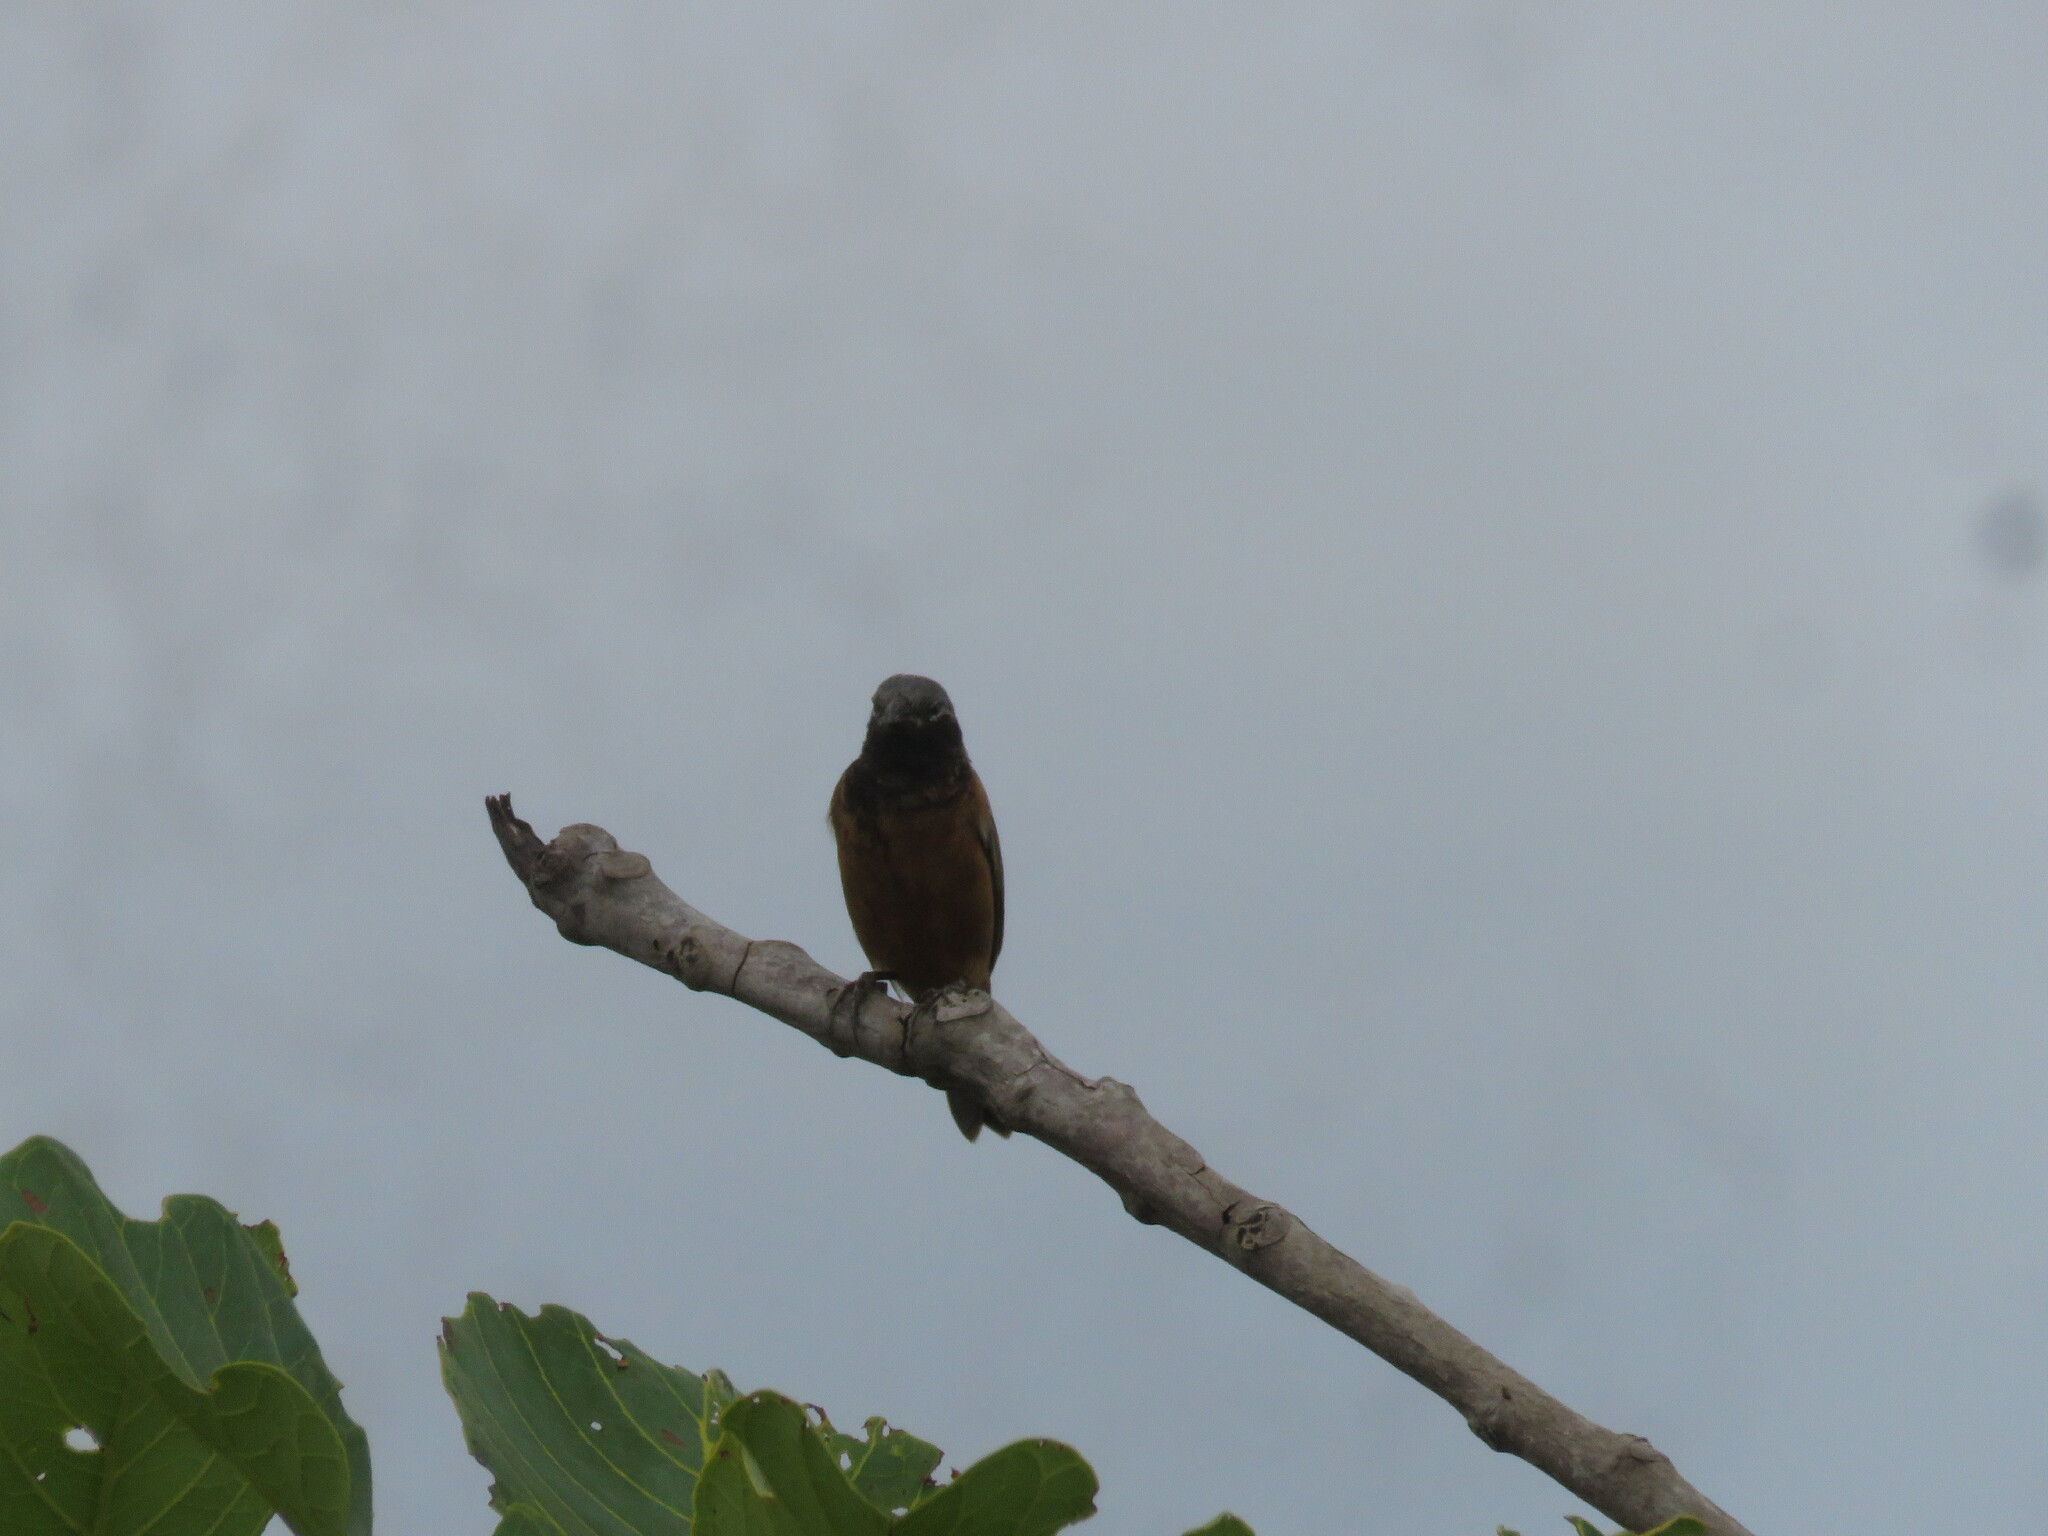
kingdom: Animalia
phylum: Chordata
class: Aves
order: Passeriformes
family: Thraupidae
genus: Sporophila
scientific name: Sporophila ruficollis
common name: Dark-throated seedeater
